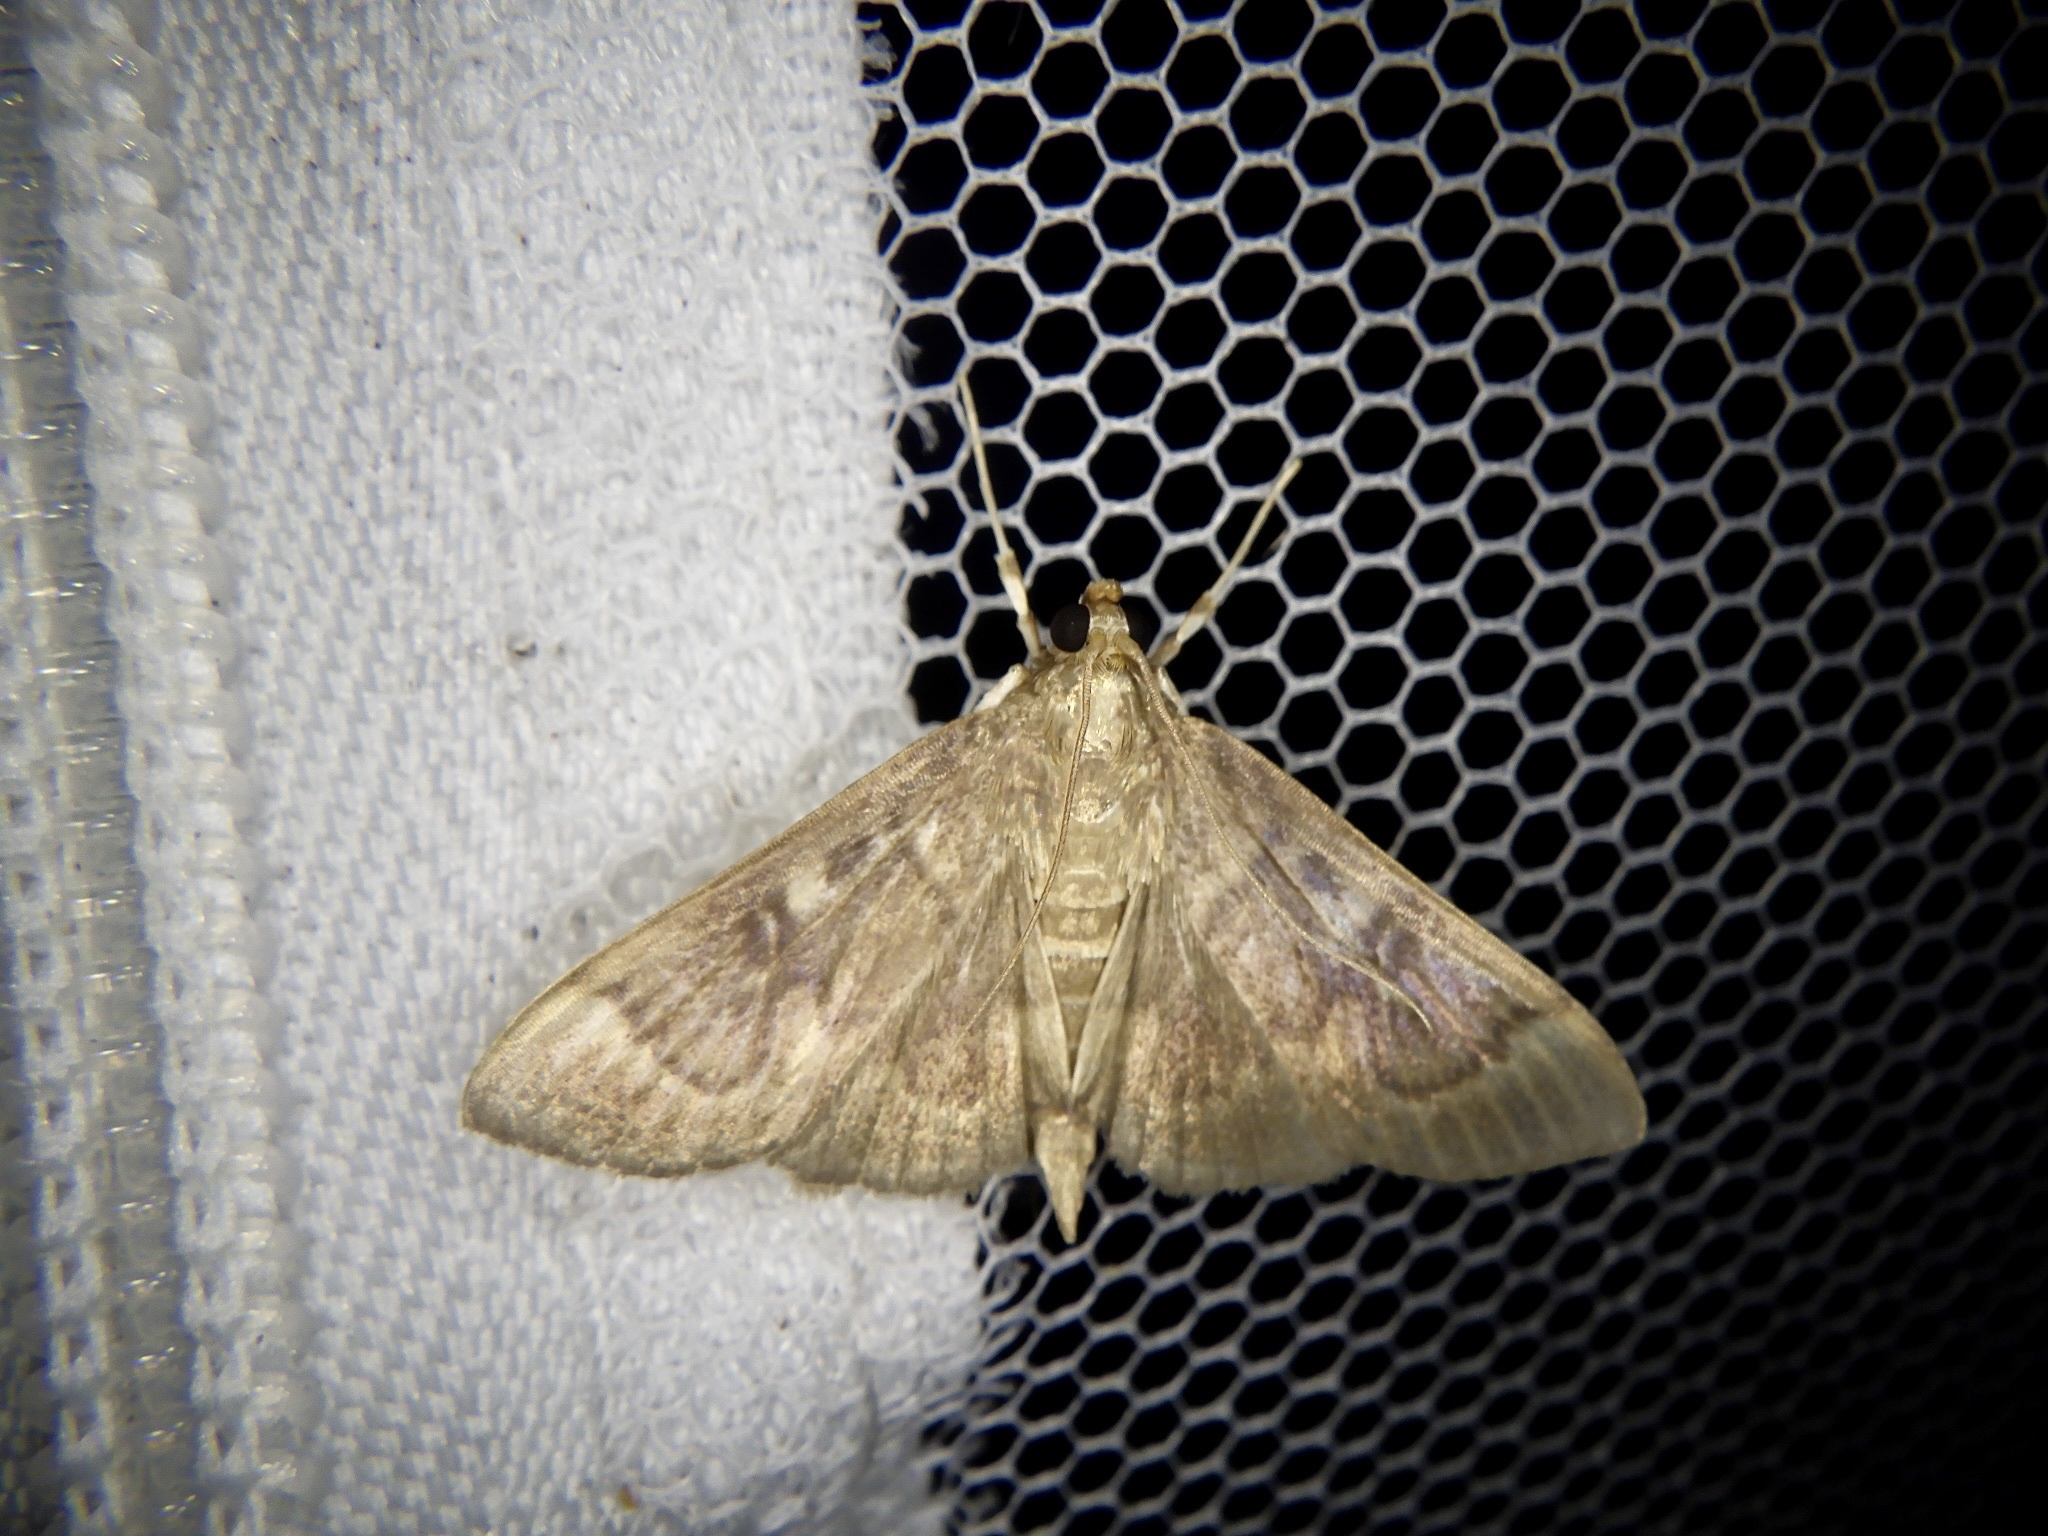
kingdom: Animalia
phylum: Arthropoda
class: Insecta
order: Lepidoptera
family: Crambidae
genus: Syllepte
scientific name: Syllepte fuscoinvalidalis
